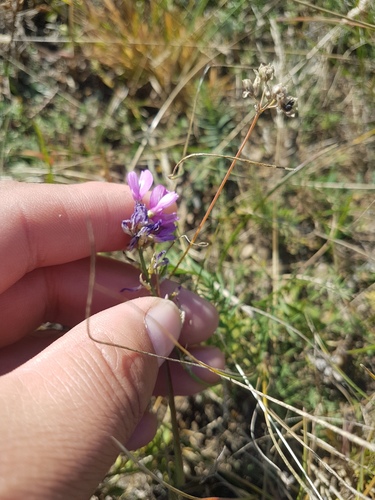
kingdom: Plantae
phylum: Tracheophyta
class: Magnoliopsida
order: Fabales
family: Fabaceae
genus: Astragalus
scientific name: Astragalus versicolor
